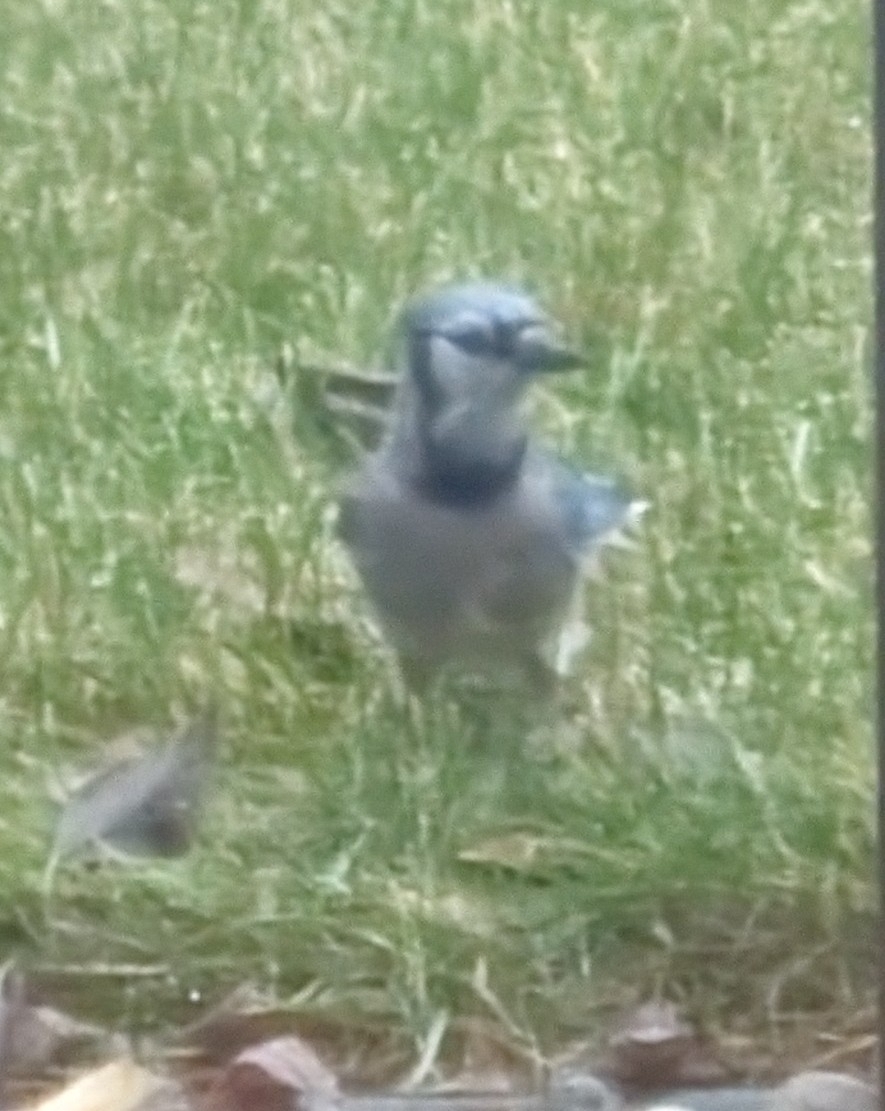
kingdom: Animalia
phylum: Chordata
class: Aves
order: Passeriformes
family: Corvidae
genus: Cyanocitta
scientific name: Cyanocitta cristata
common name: Blue jay
